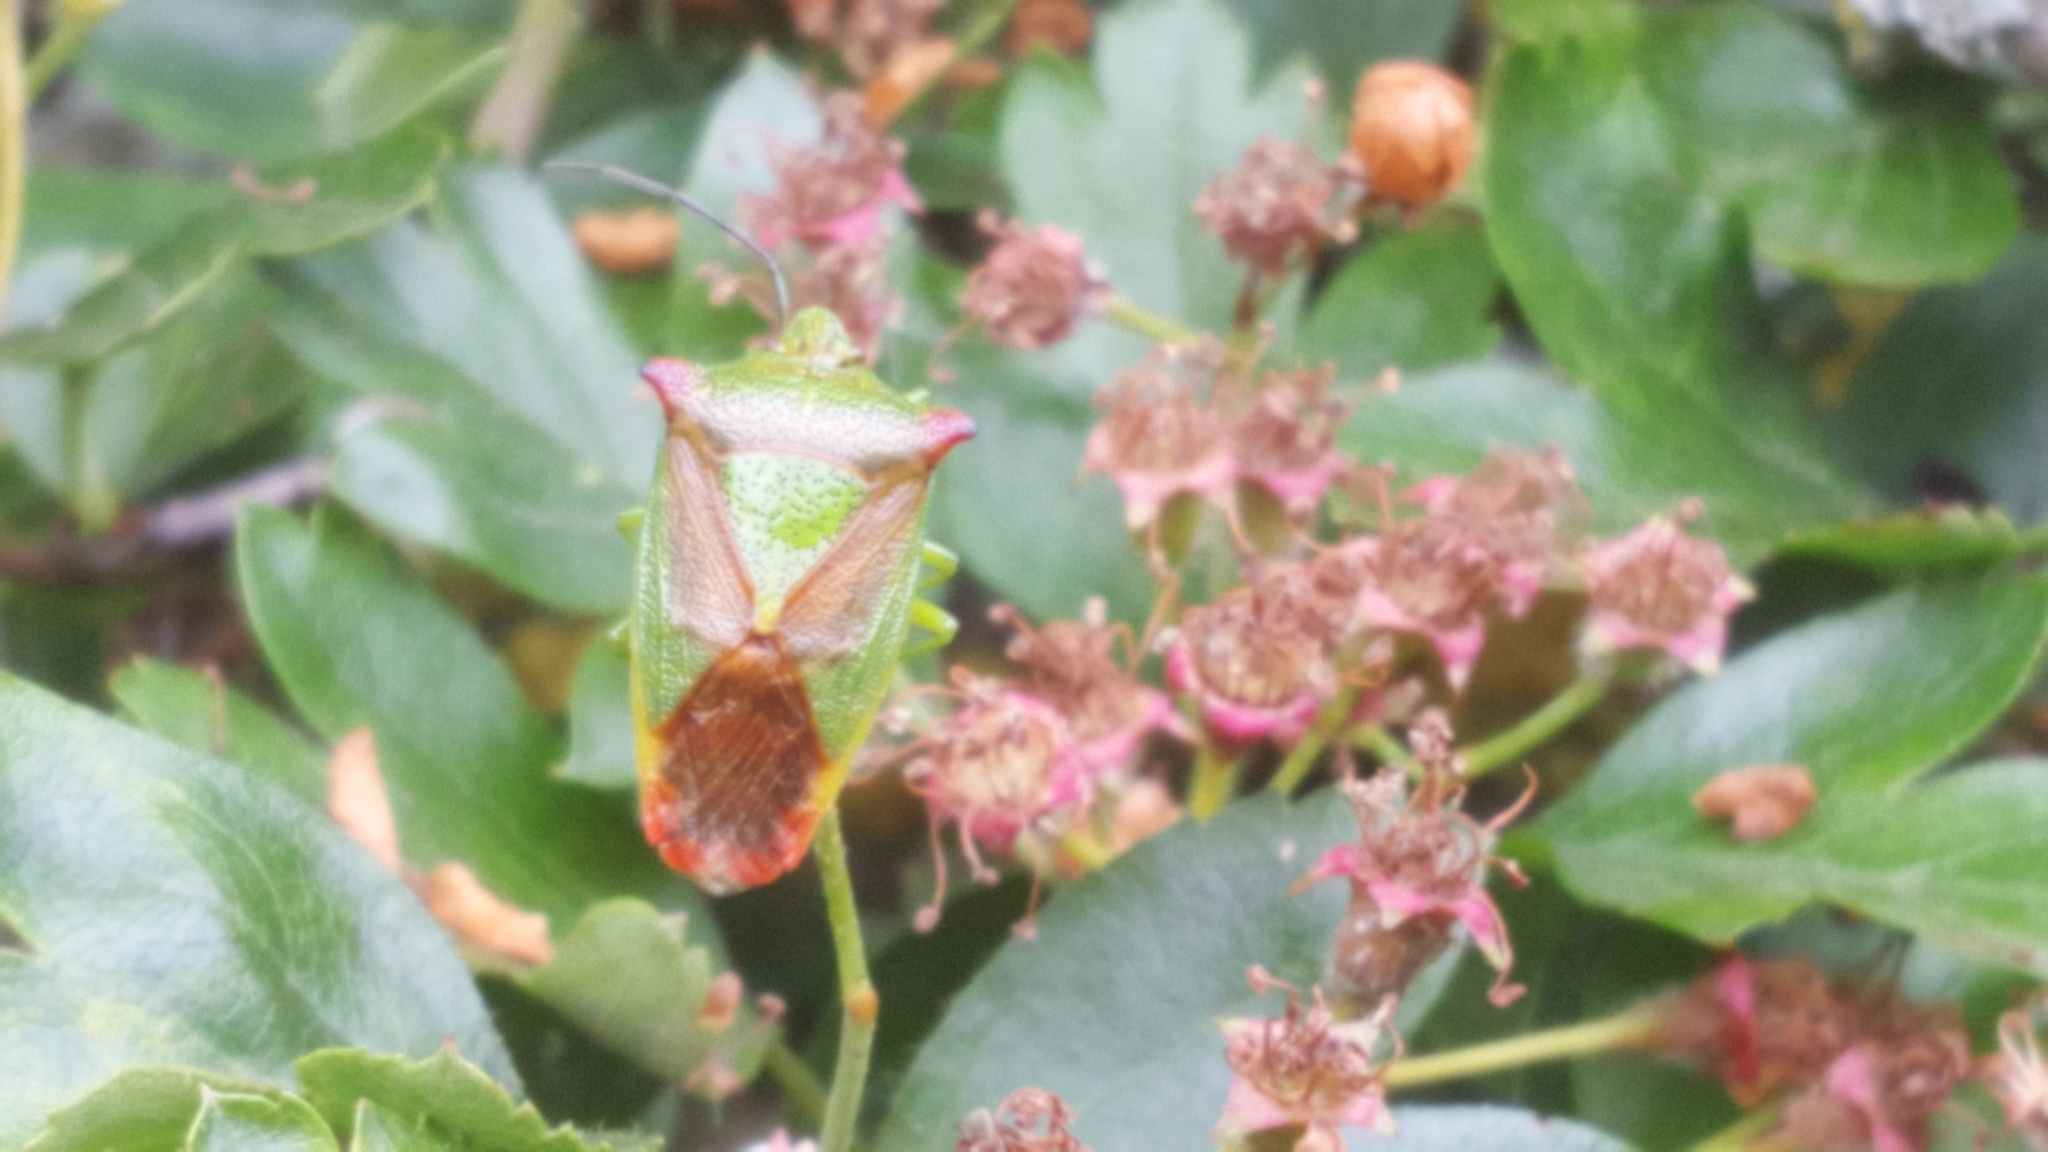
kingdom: Animalia
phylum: Arthropoda
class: Insecta
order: Hemiptera
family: Acanthosomatidae
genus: Acanthosoma
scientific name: Acanthosoma haemorrhoidale
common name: Hawthorn shieldbug
